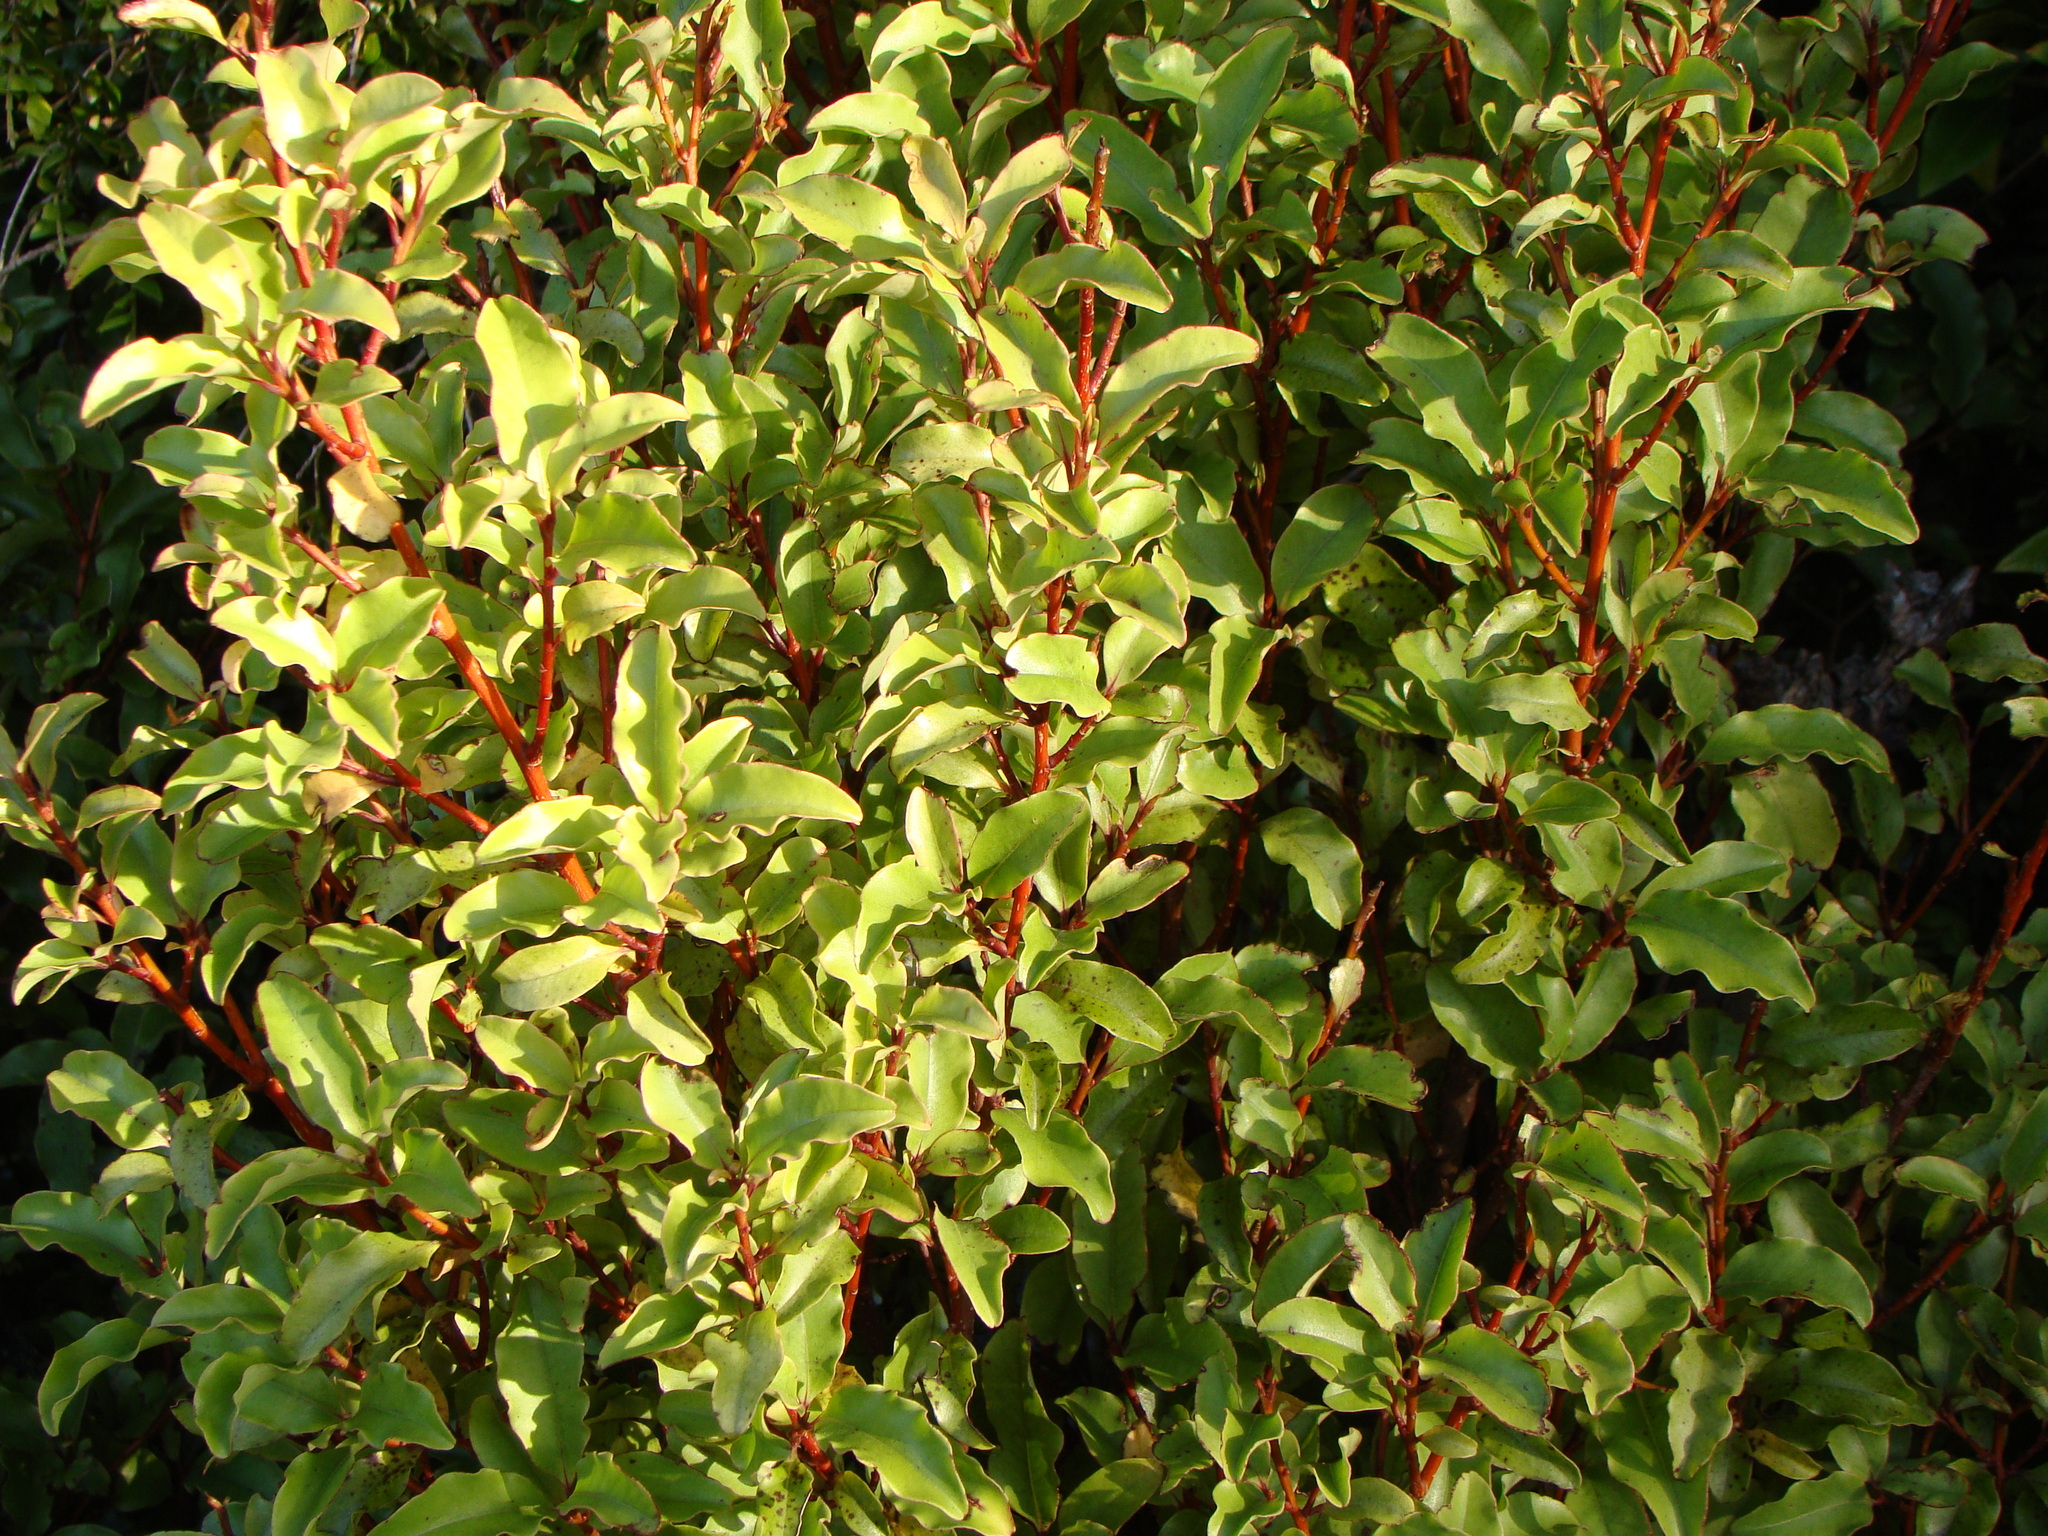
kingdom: Plantae
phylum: Tracheophyta
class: Magnoliopsida
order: Ericales
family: Primulaceae
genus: Myrsine
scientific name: Myrsine australis
